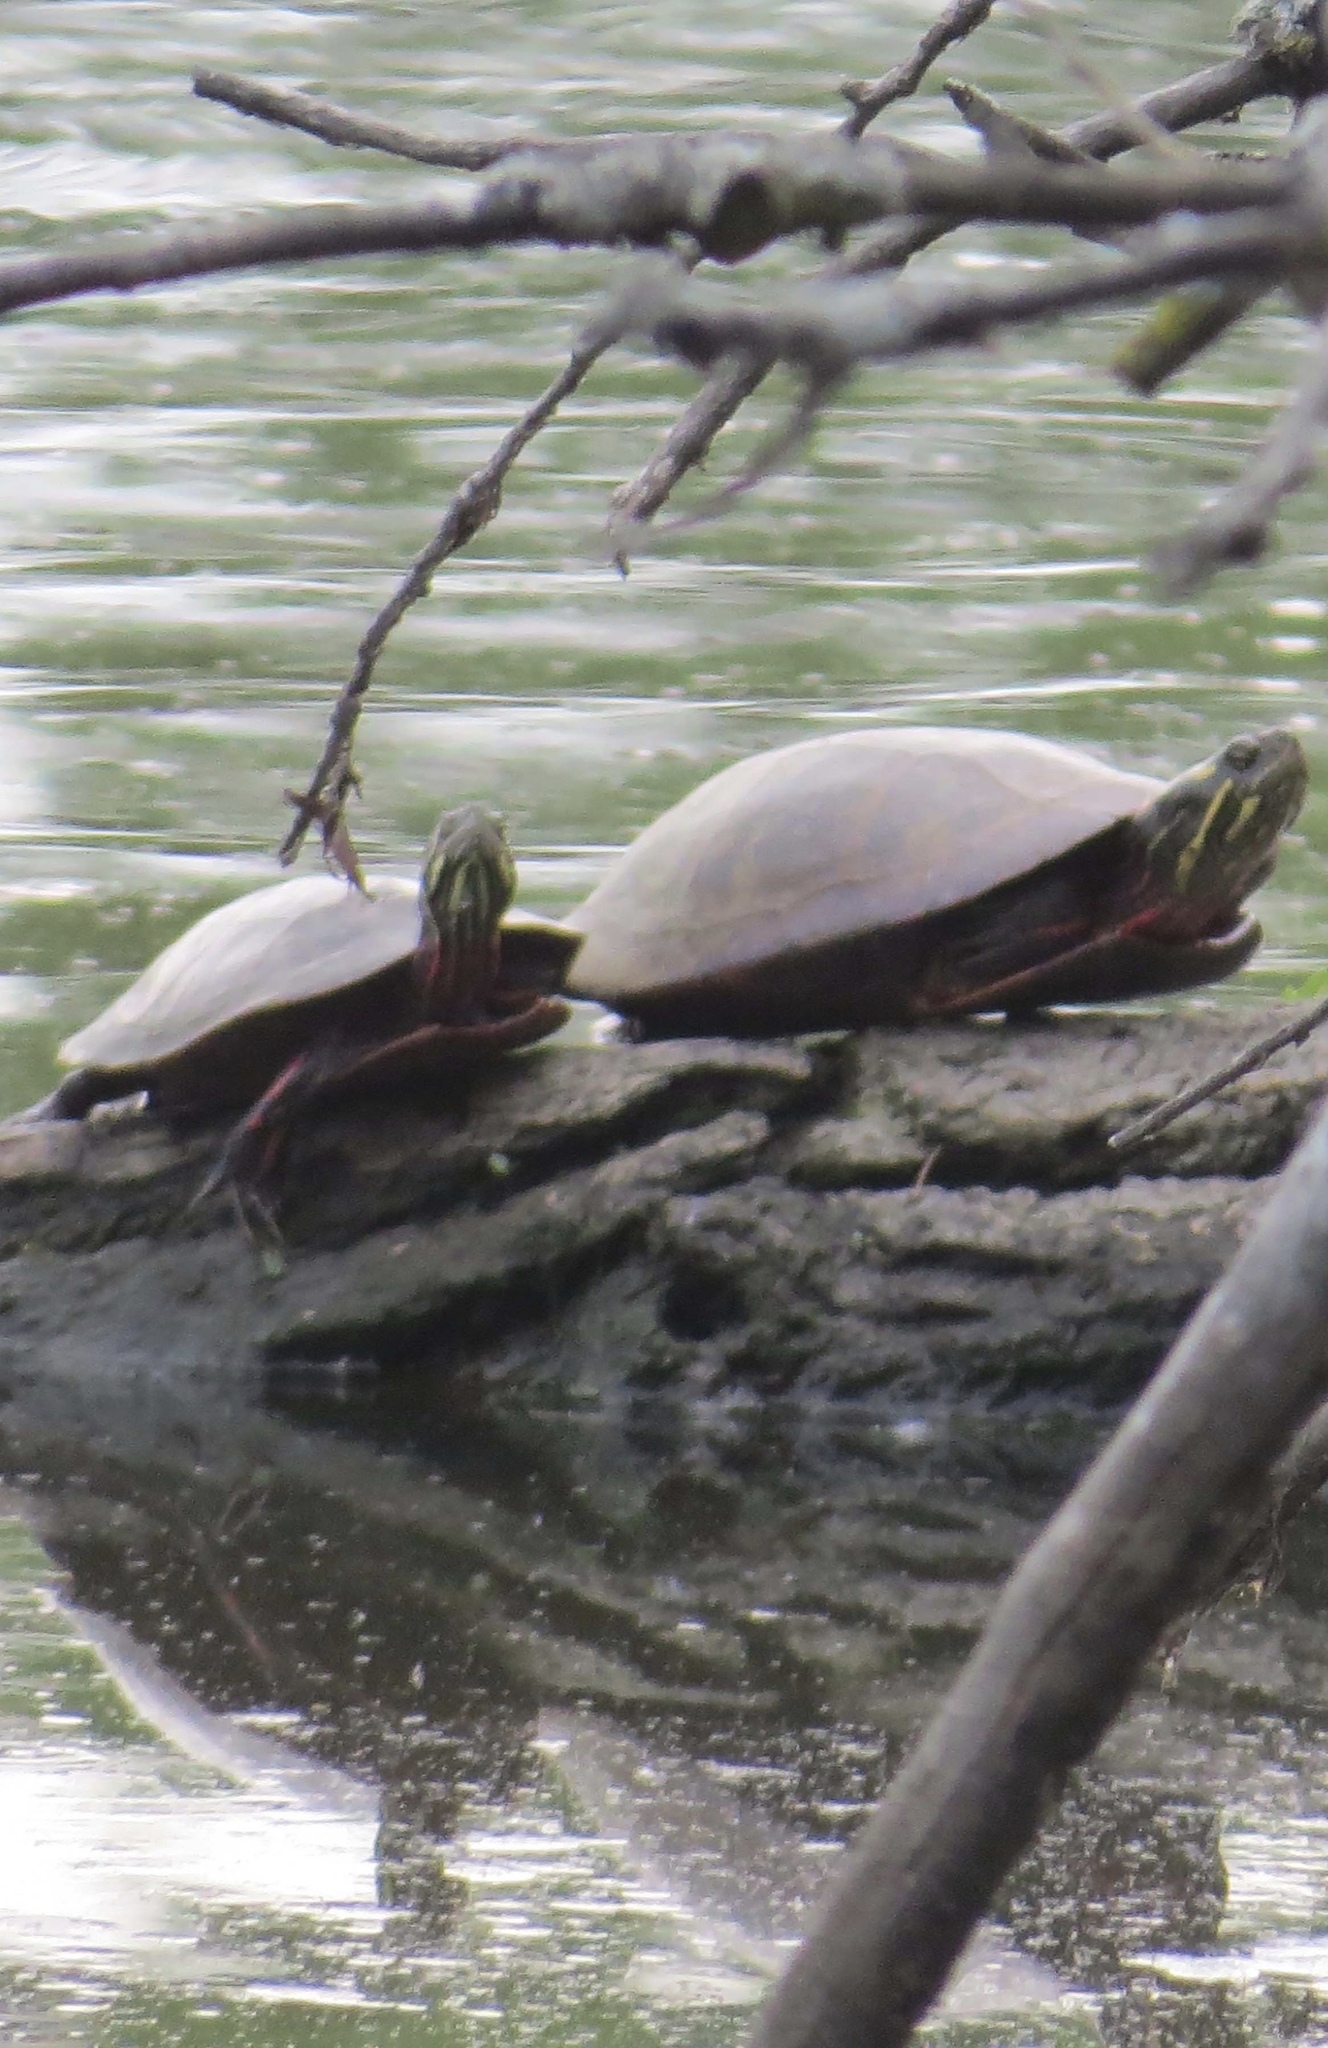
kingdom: Animalia
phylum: Chordata
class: Testudines
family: Emydidae
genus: Chrysemys
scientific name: Chrysemys picta
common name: Painted turtle
